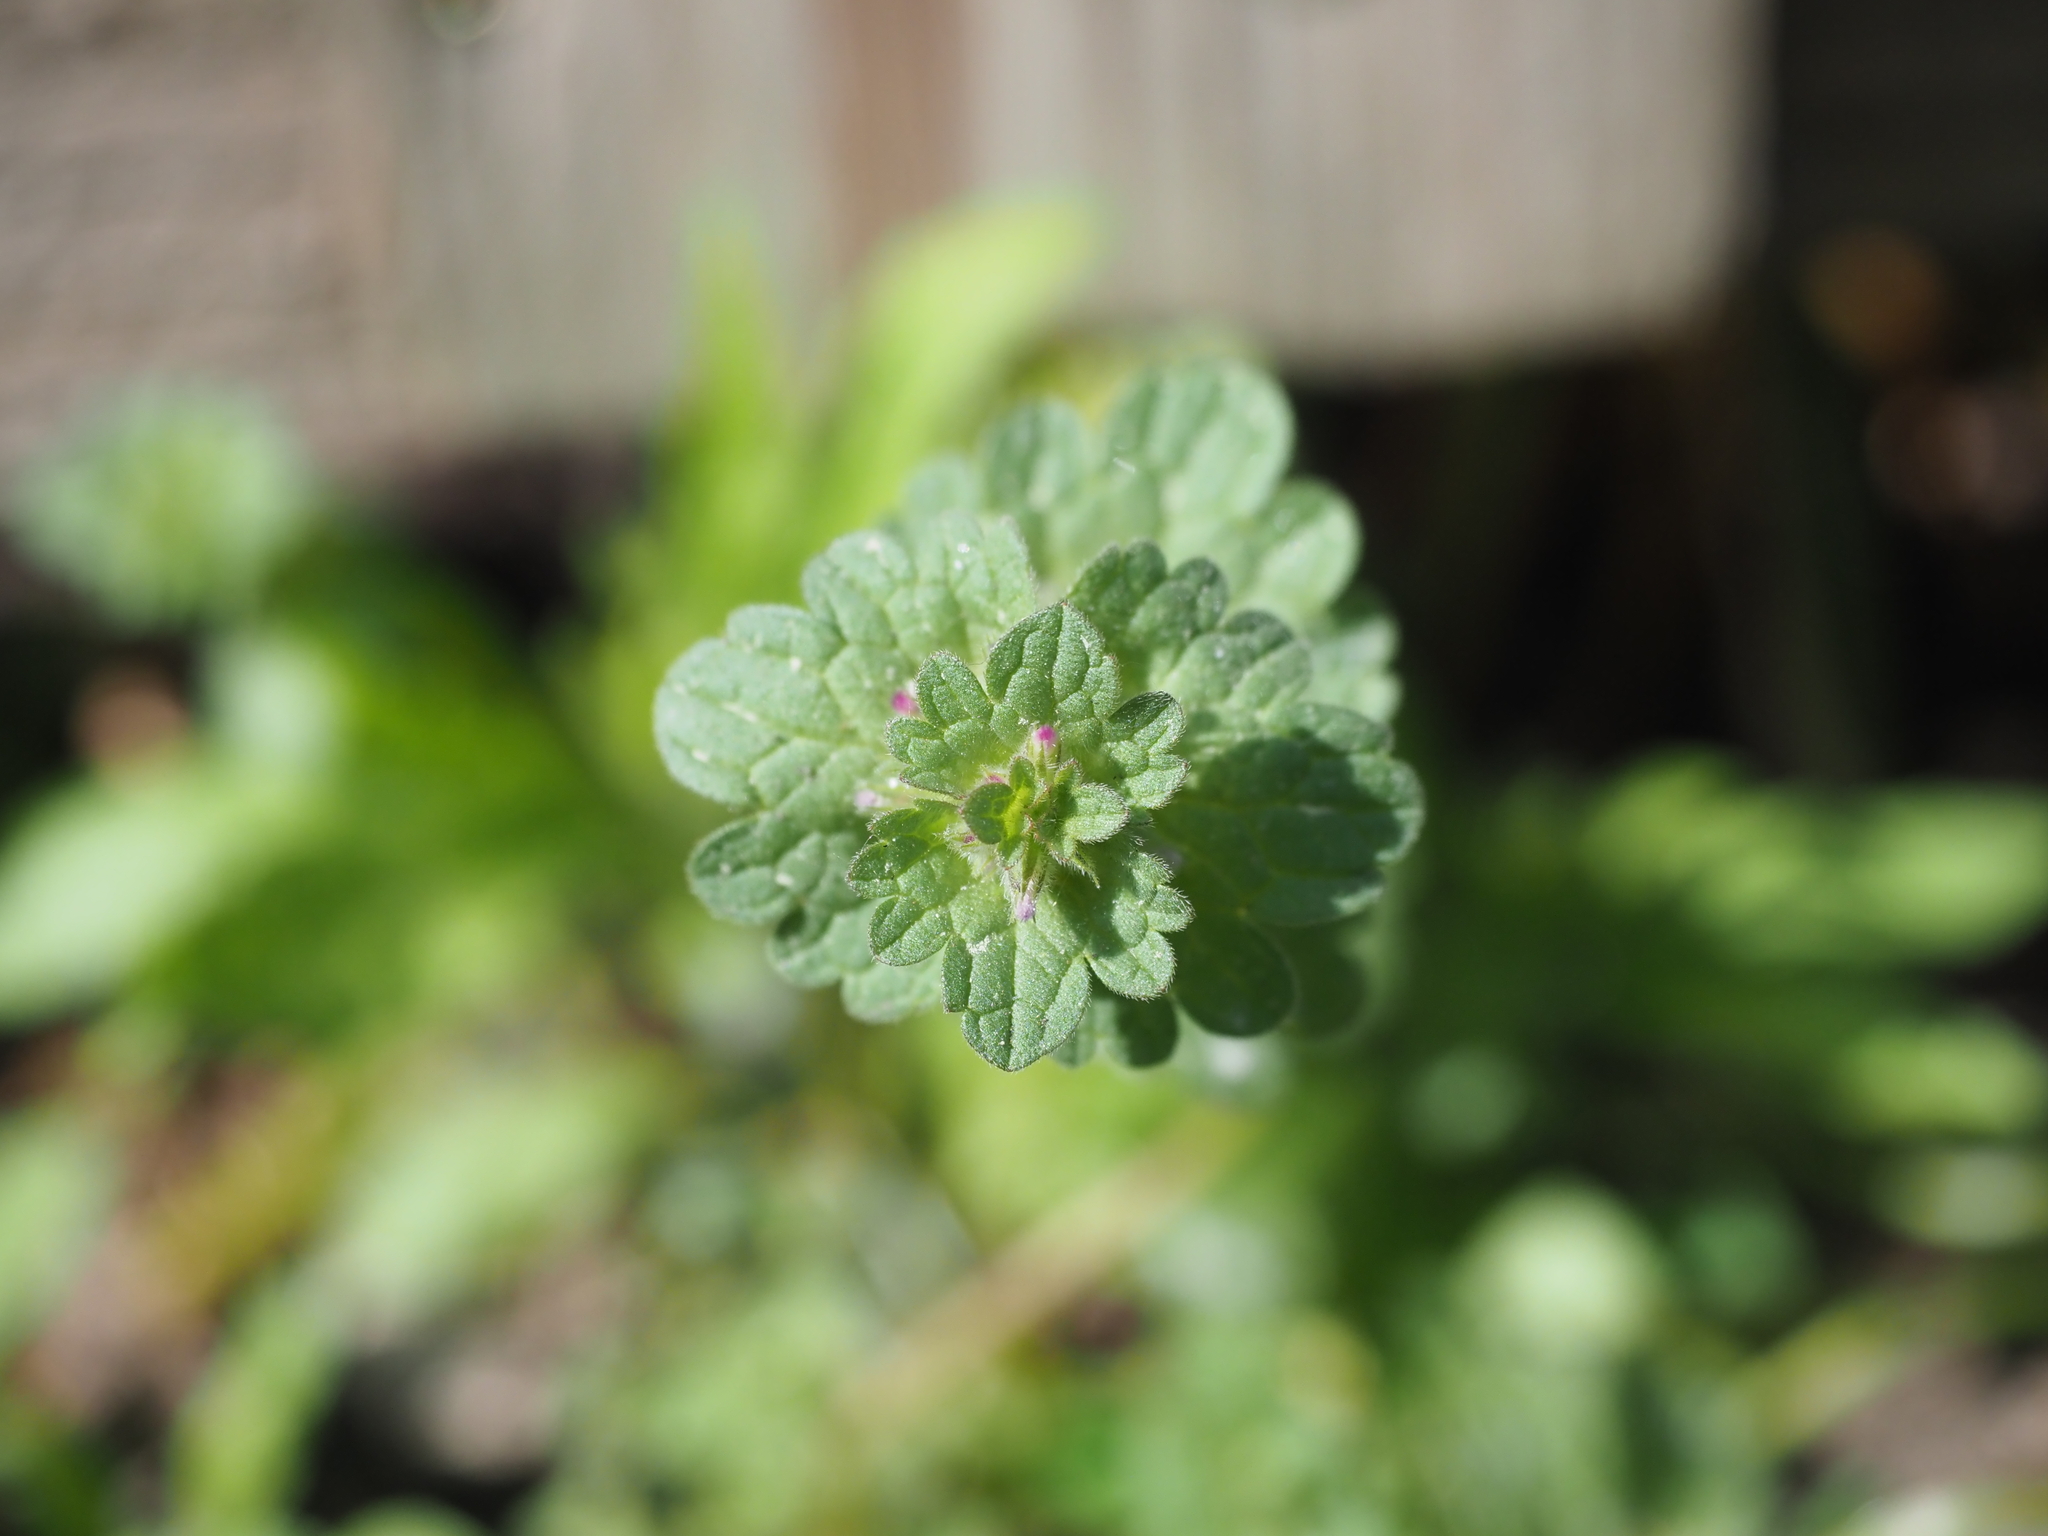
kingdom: Plantae
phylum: Tracheophyta
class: Magnoliopsida
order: Lamiales
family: Lamiaceae
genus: Lamium
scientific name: Lamium amplexicaule
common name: Henbit dead-nettle
